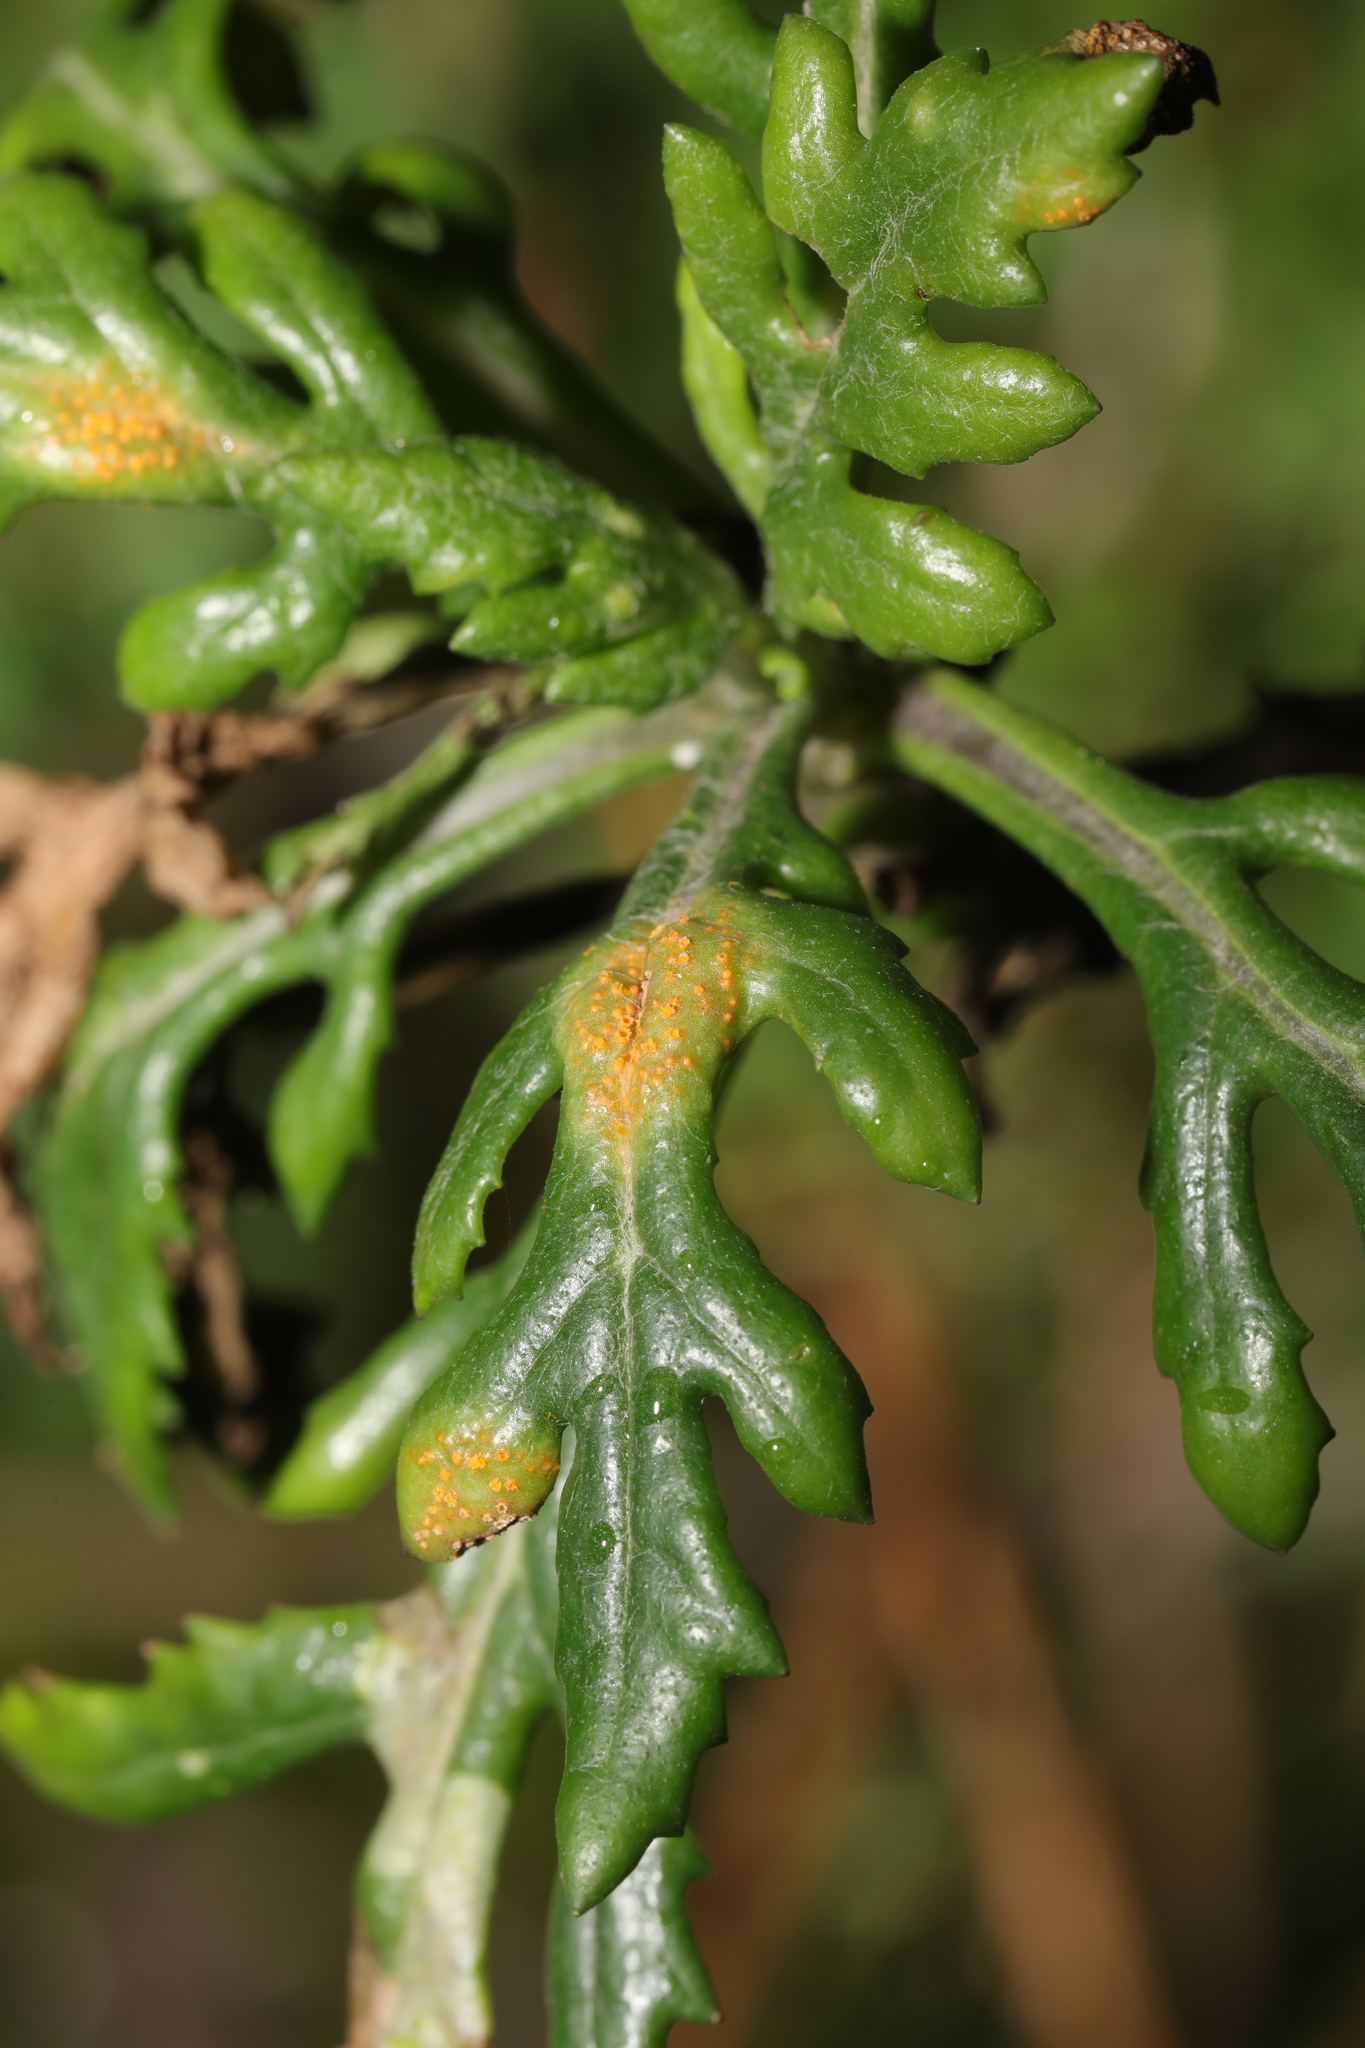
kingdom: Fungi
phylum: Basidiomycota
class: Pucciniomycetes
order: Pucciniales
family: Pucciniaceae
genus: Puccinia
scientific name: Puccinia lagenophorae
